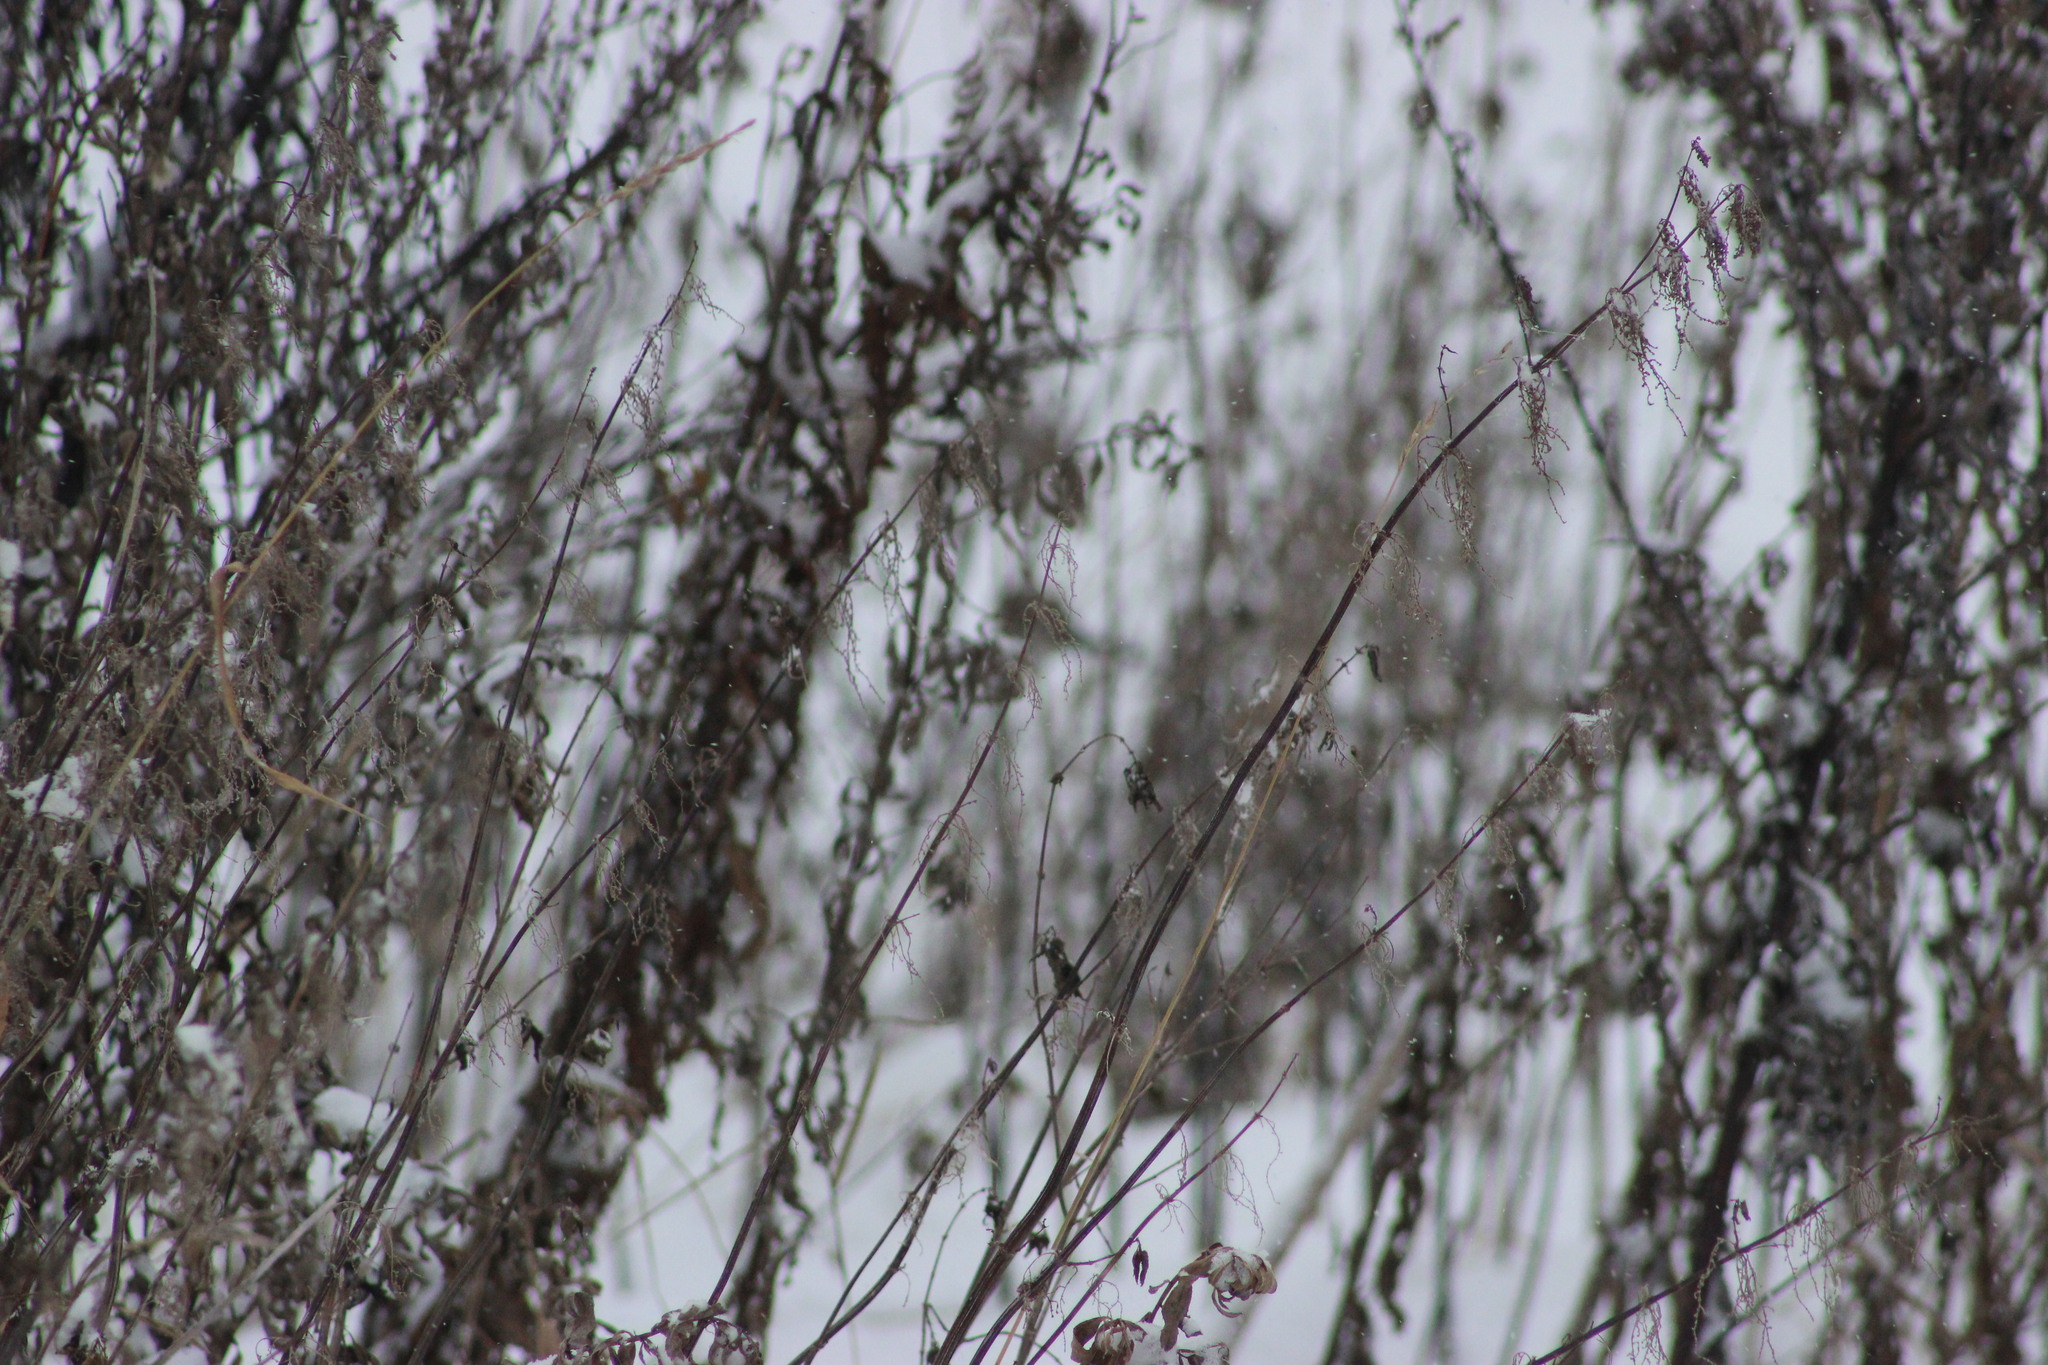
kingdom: Plantae
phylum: Tracheophyta
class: Magnoliopsida
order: Rosales
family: Urticaceae
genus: Urtica
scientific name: Urtica dioica
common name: Common nettle
